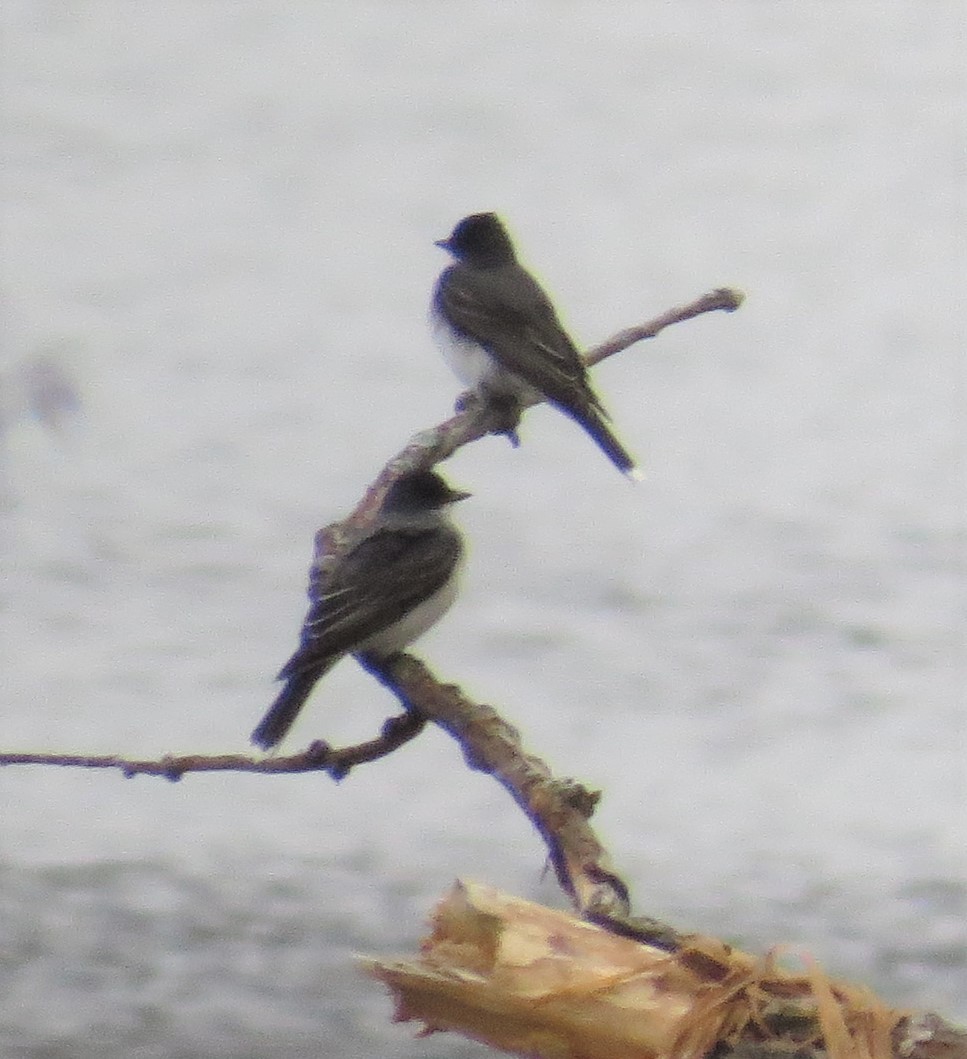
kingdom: Animalia
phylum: Chordata
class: Aves
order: Passeriformes
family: Tyrannidae
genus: Tyrannus
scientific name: Tyrannus tyrannus
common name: Eastern kingbird
